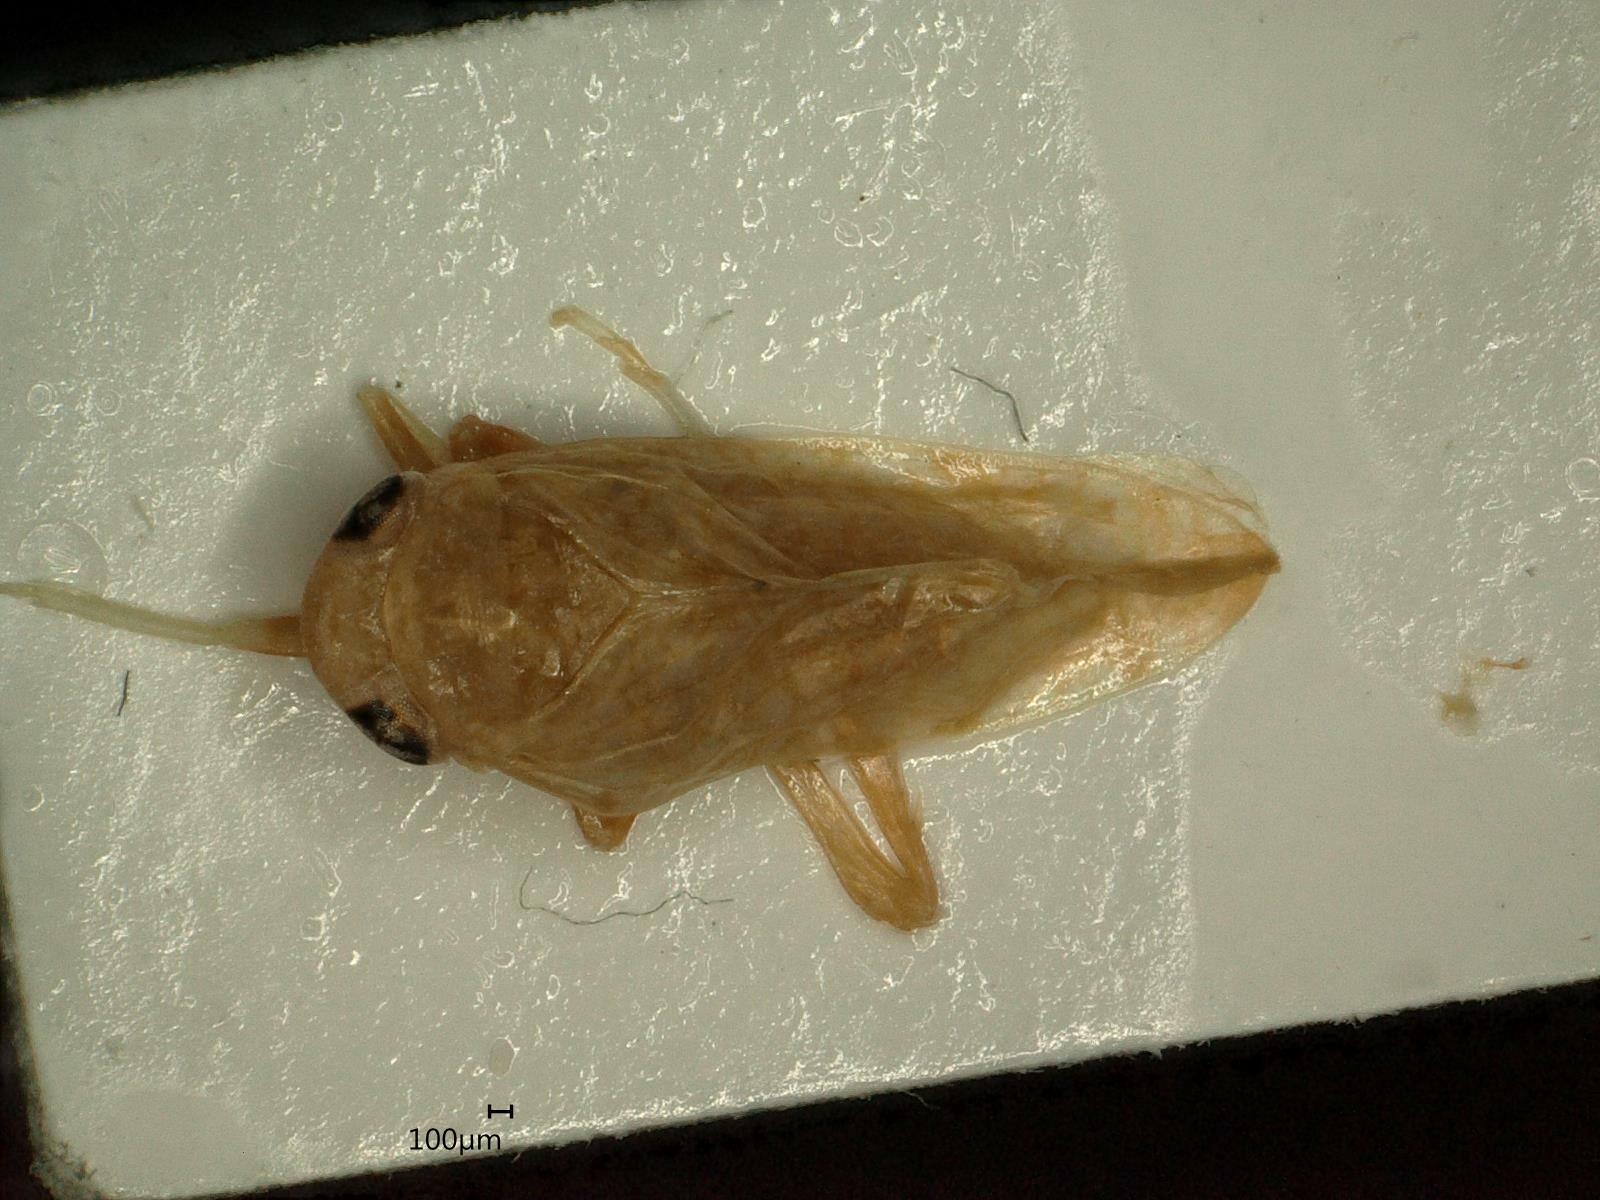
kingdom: Animalia
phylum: Arthropoda
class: Insecta
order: Hemiptera
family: Cicadellidae
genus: Orientus
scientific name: Orientus ishidae
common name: Japanese leafhopper
